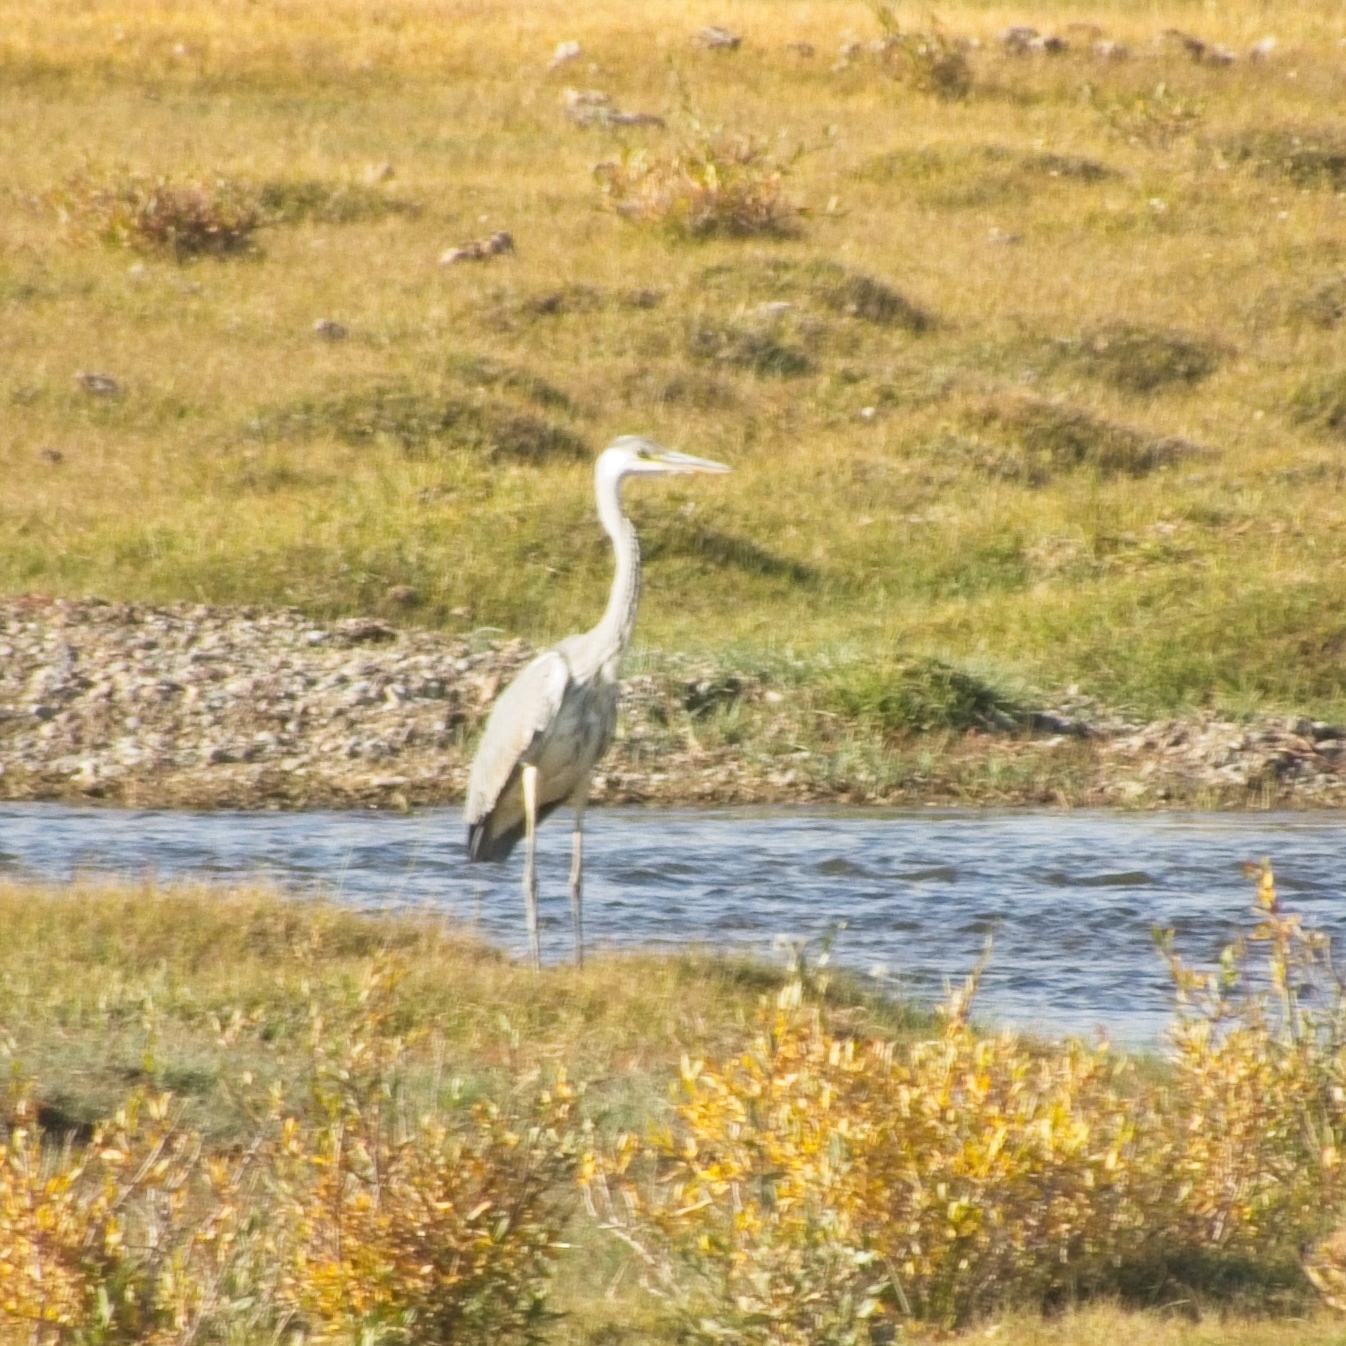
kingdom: Animalia
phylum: Chordata
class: Aves
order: Pelecaniformes
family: Ardeidae
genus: Ardea
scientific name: Ardea cinerea
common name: Grey heron
